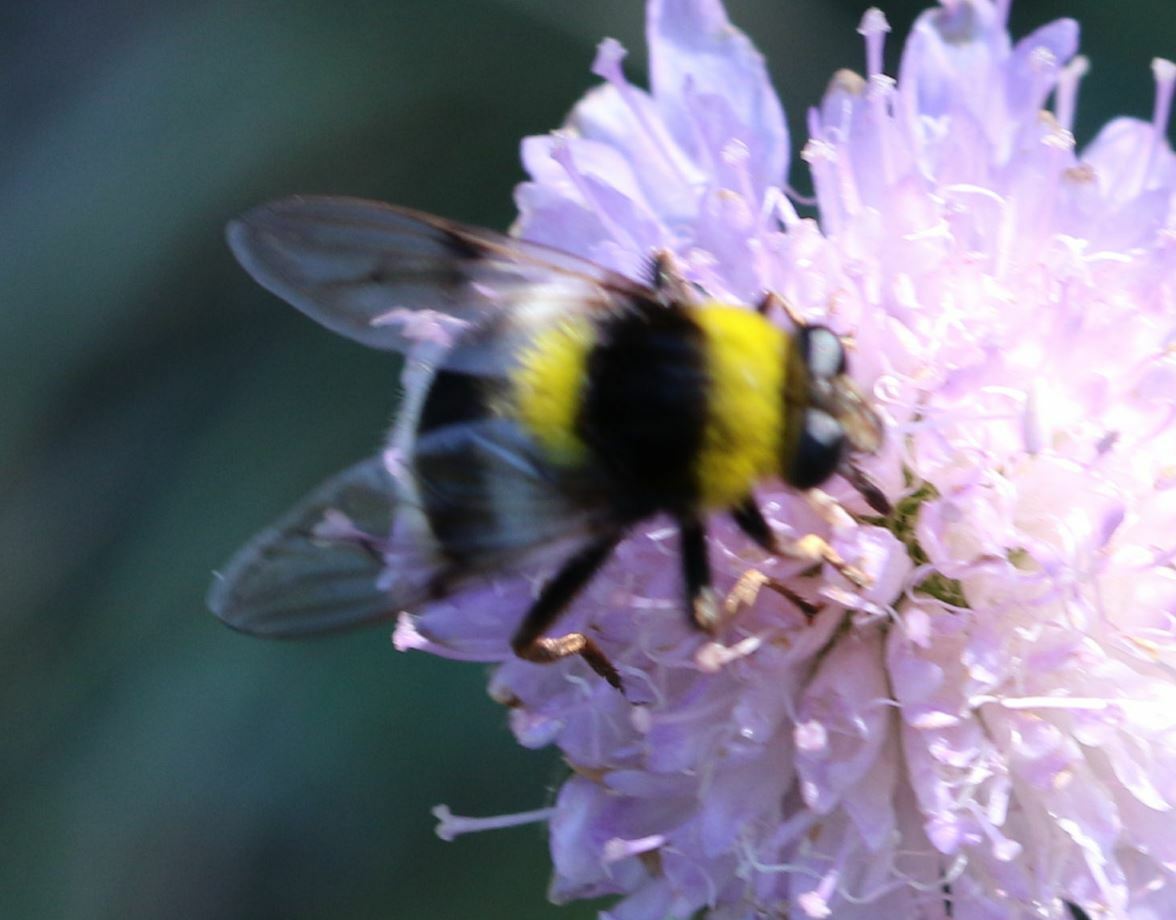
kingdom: Animalia
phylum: Arthropoda
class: Insecta
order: Diptera
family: Syrphidae
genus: Sericomyia
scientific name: Sericomyia bombiformis
